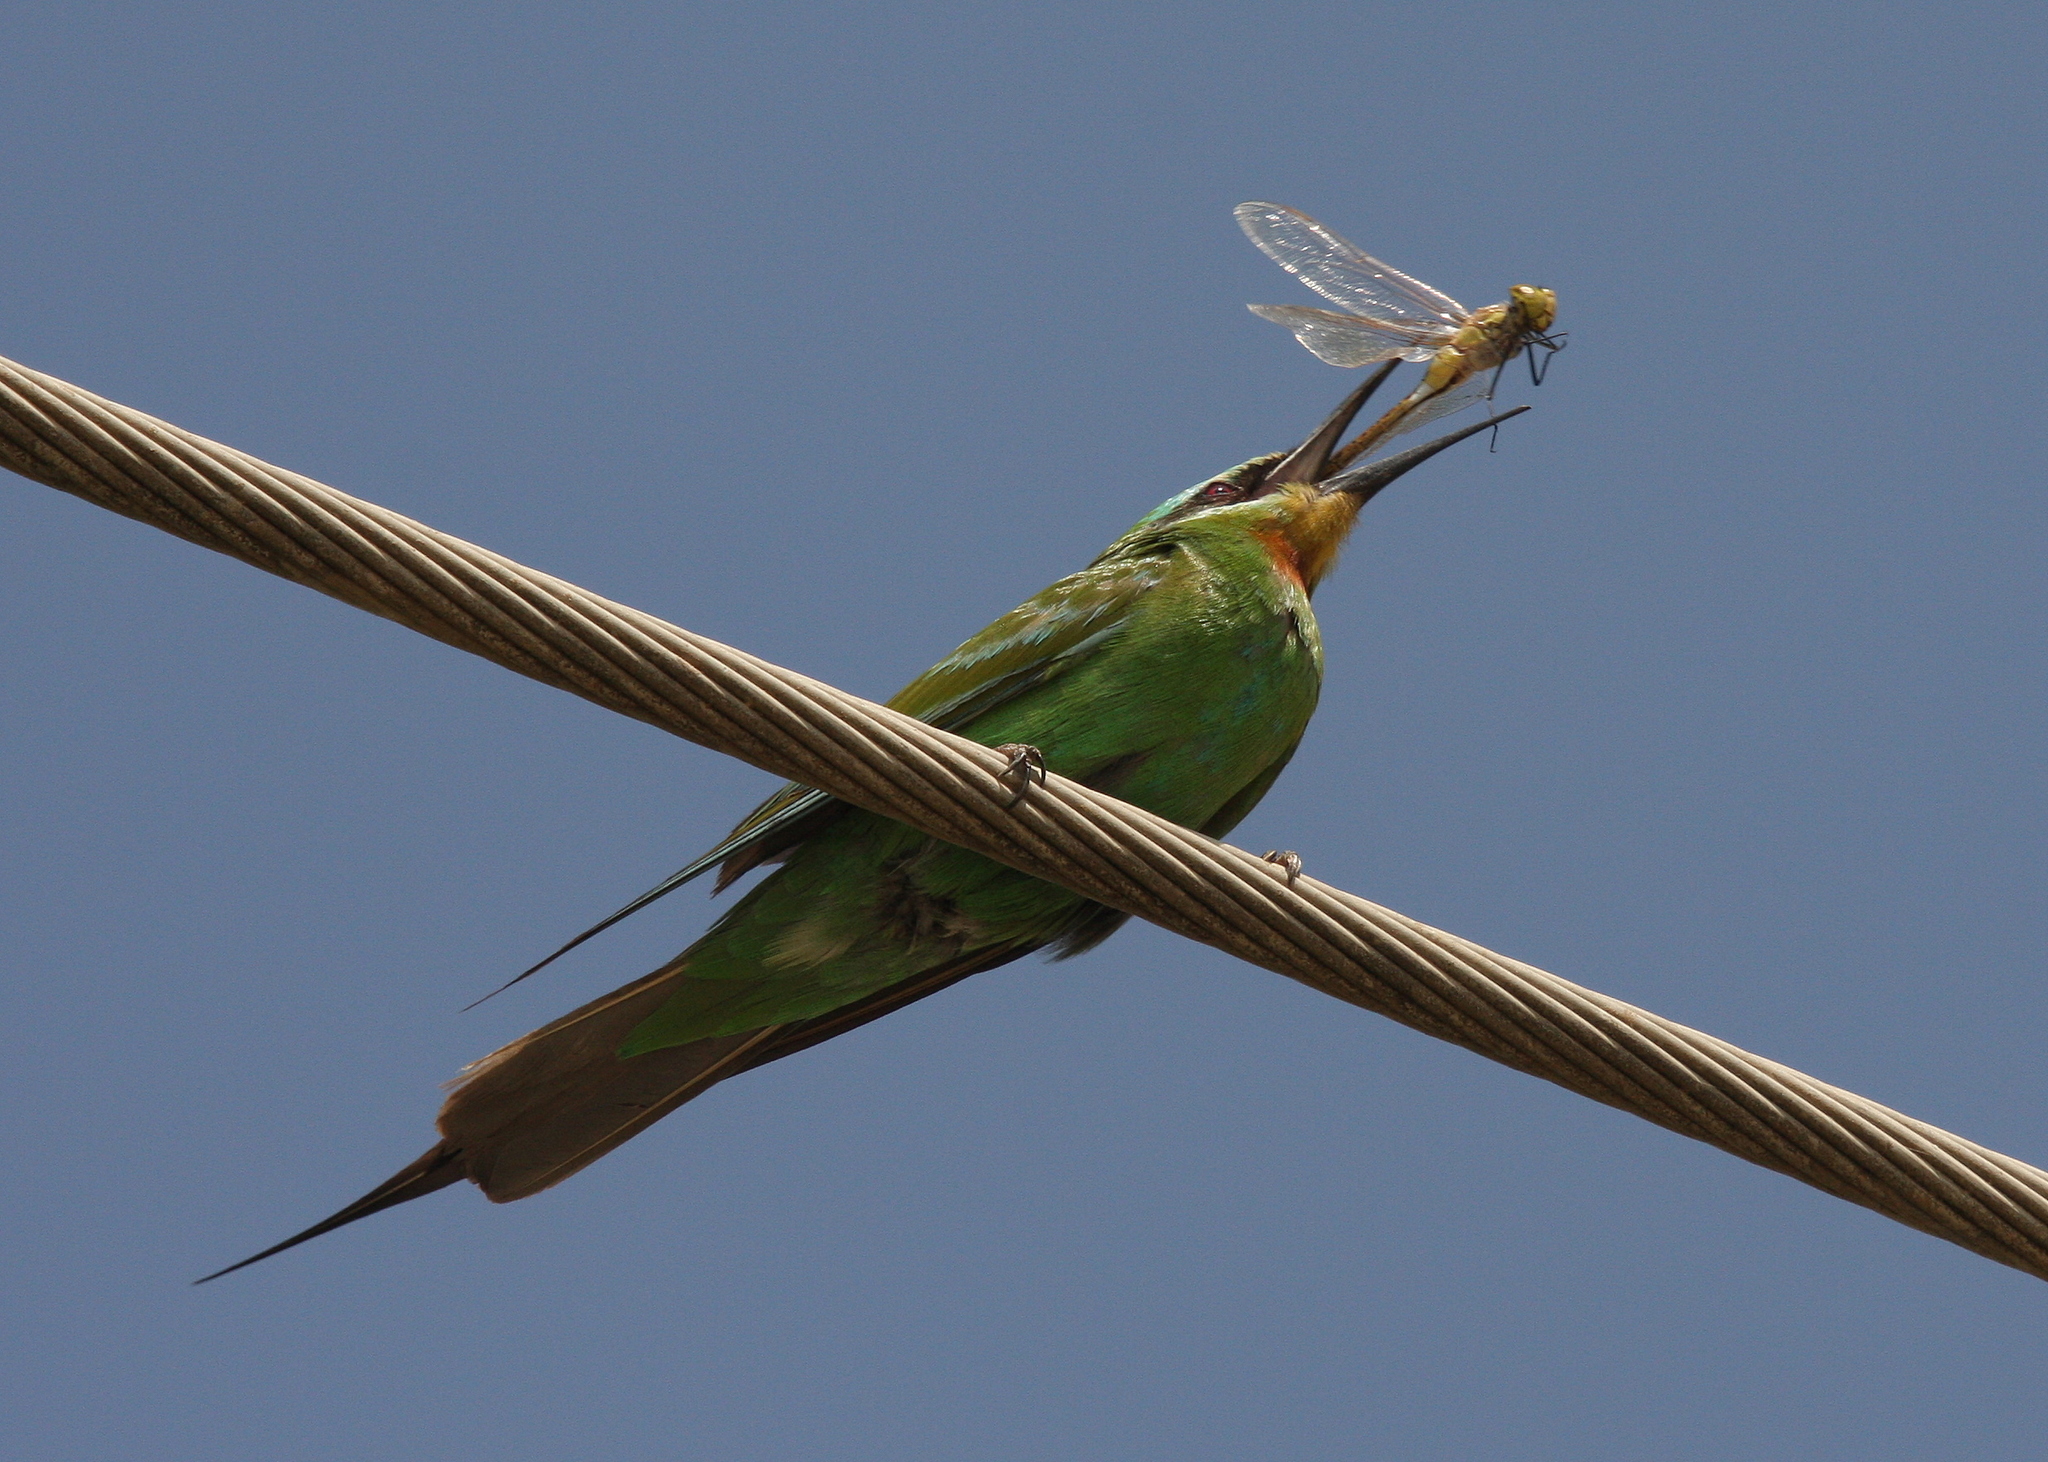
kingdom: Animalia
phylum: Chordata
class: Aves
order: Coraciiformes
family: Meropidae
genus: Merops
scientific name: Merops persicus
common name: Blue-cheeked bee-eater
